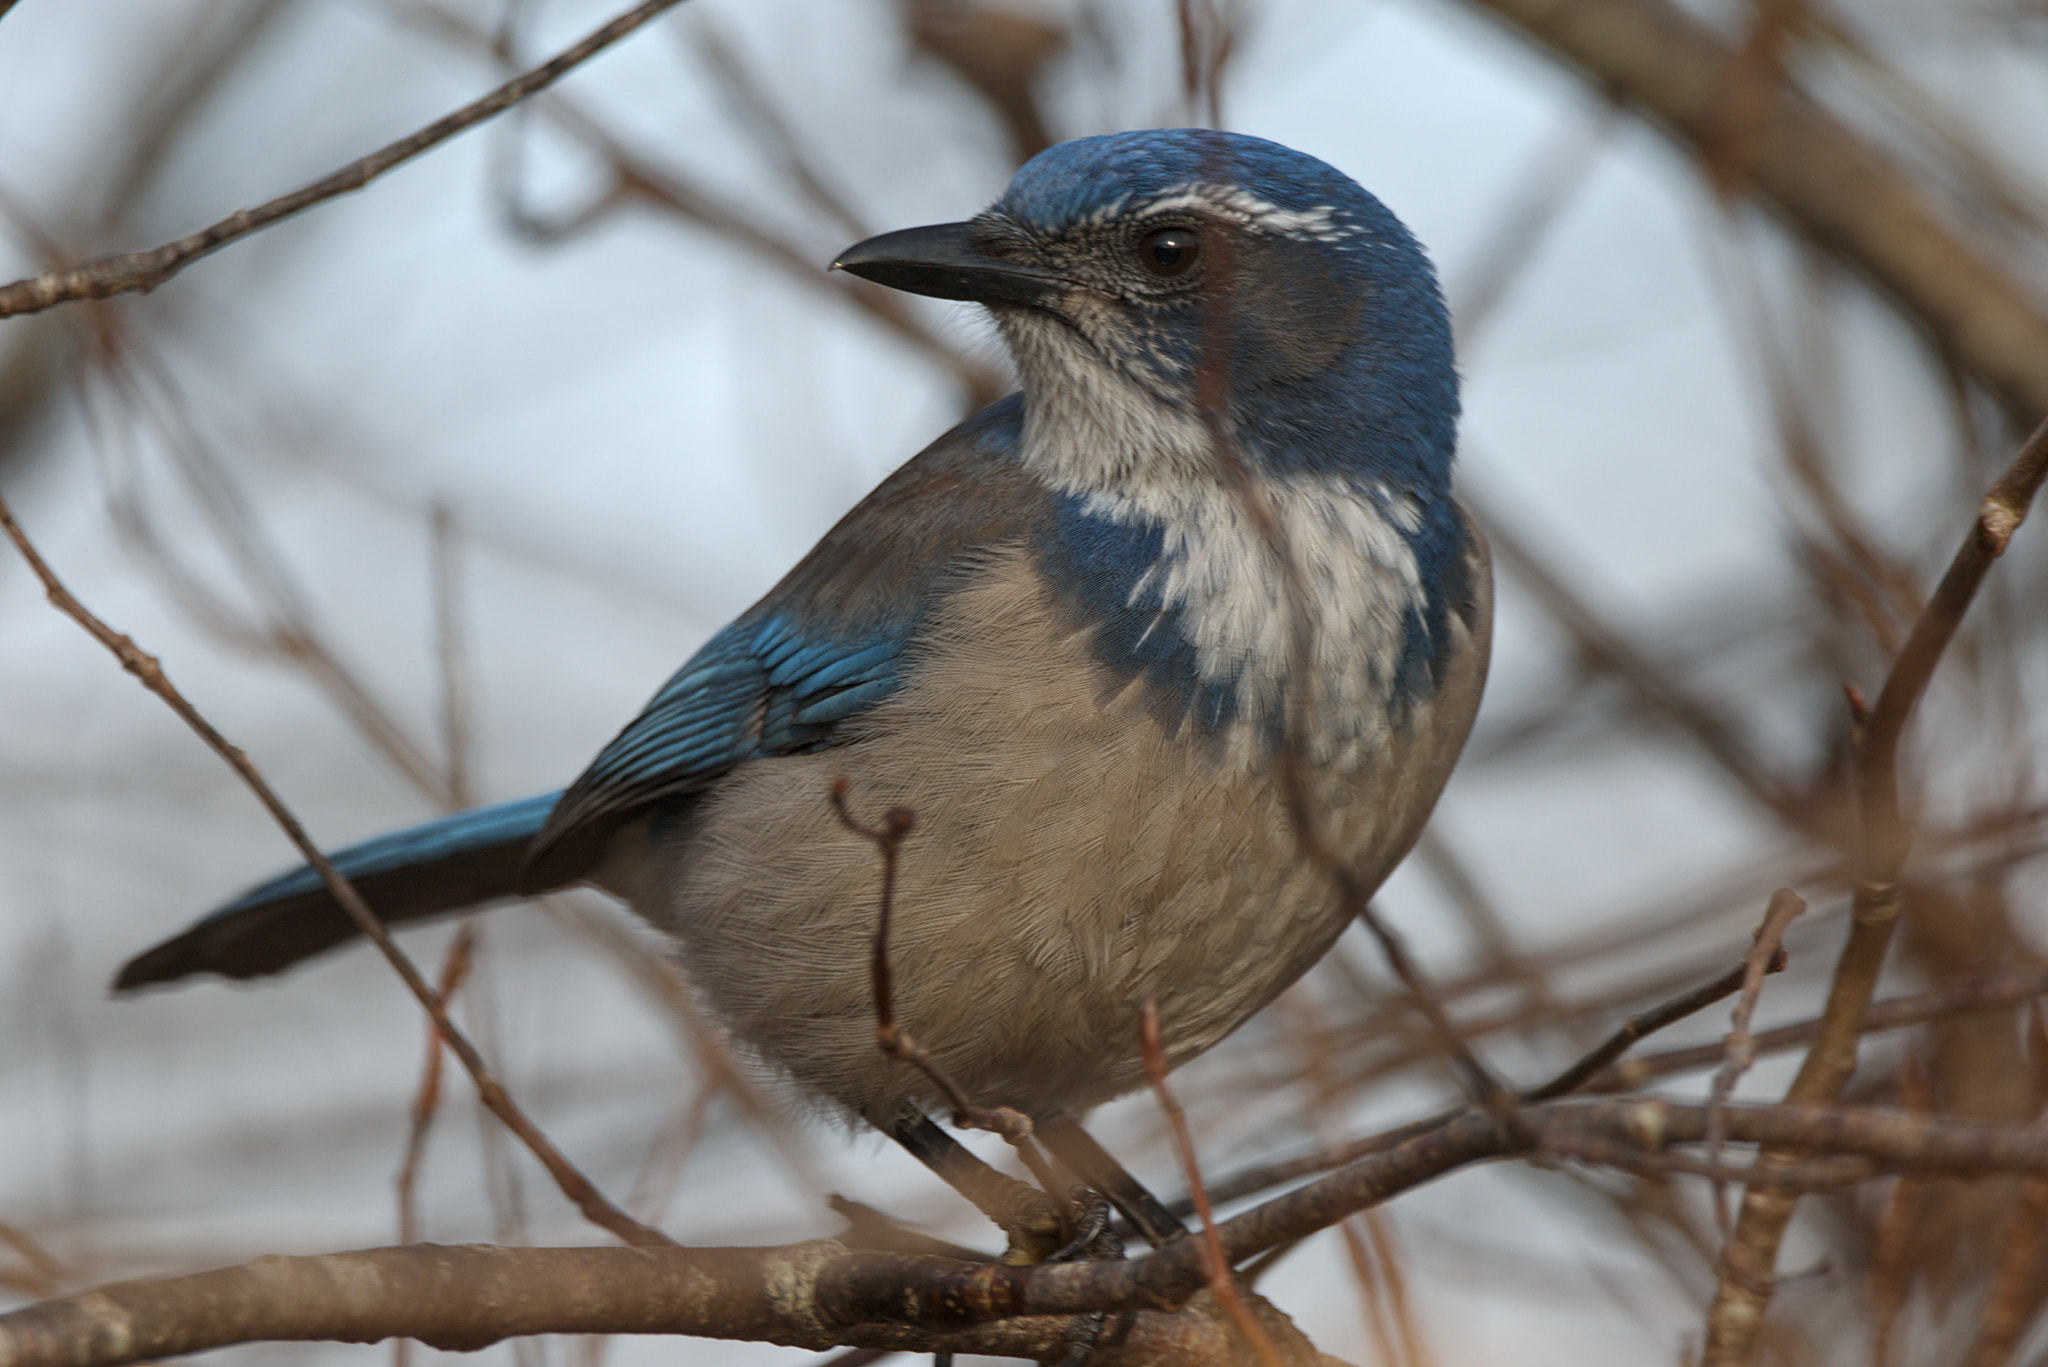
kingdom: Animalia
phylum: Chordata
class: Aves
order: Passeriformes
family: Corvidae
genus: Aphelocoma
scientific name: Aphelocoma californica
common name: California scrub-jay
